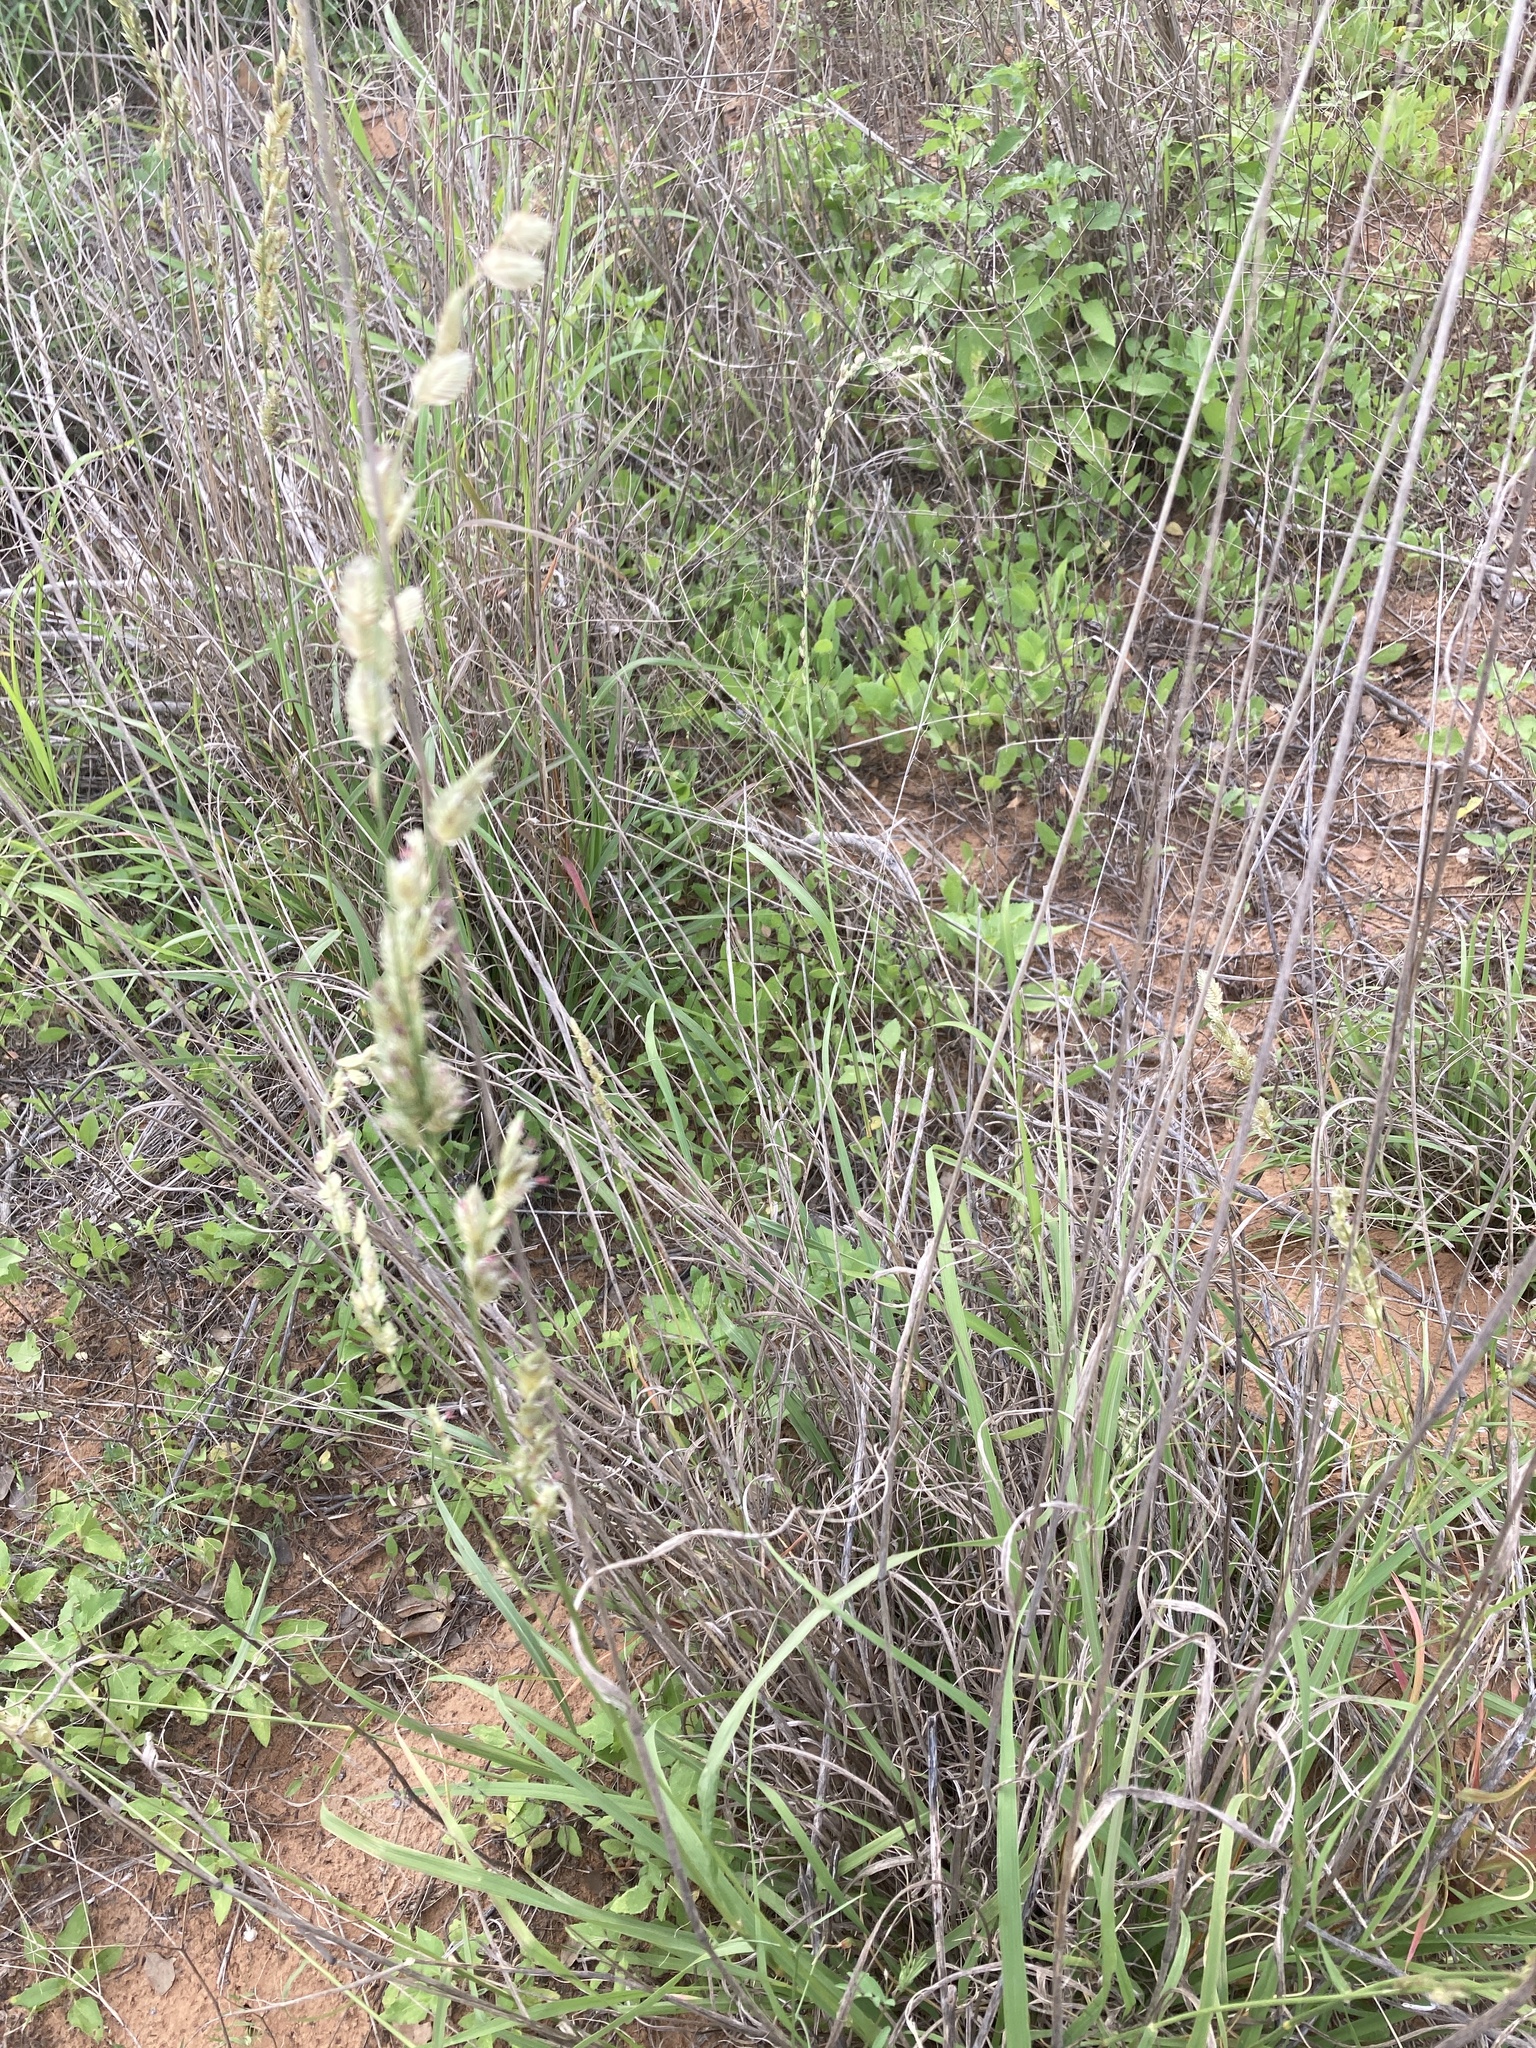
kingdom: Plantae
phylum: Tracheophyta
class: Liliopsida
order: Poales
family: Poaceae
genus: Eragrostis
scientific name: Eragrostis superba
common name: Wilman lovegrass
